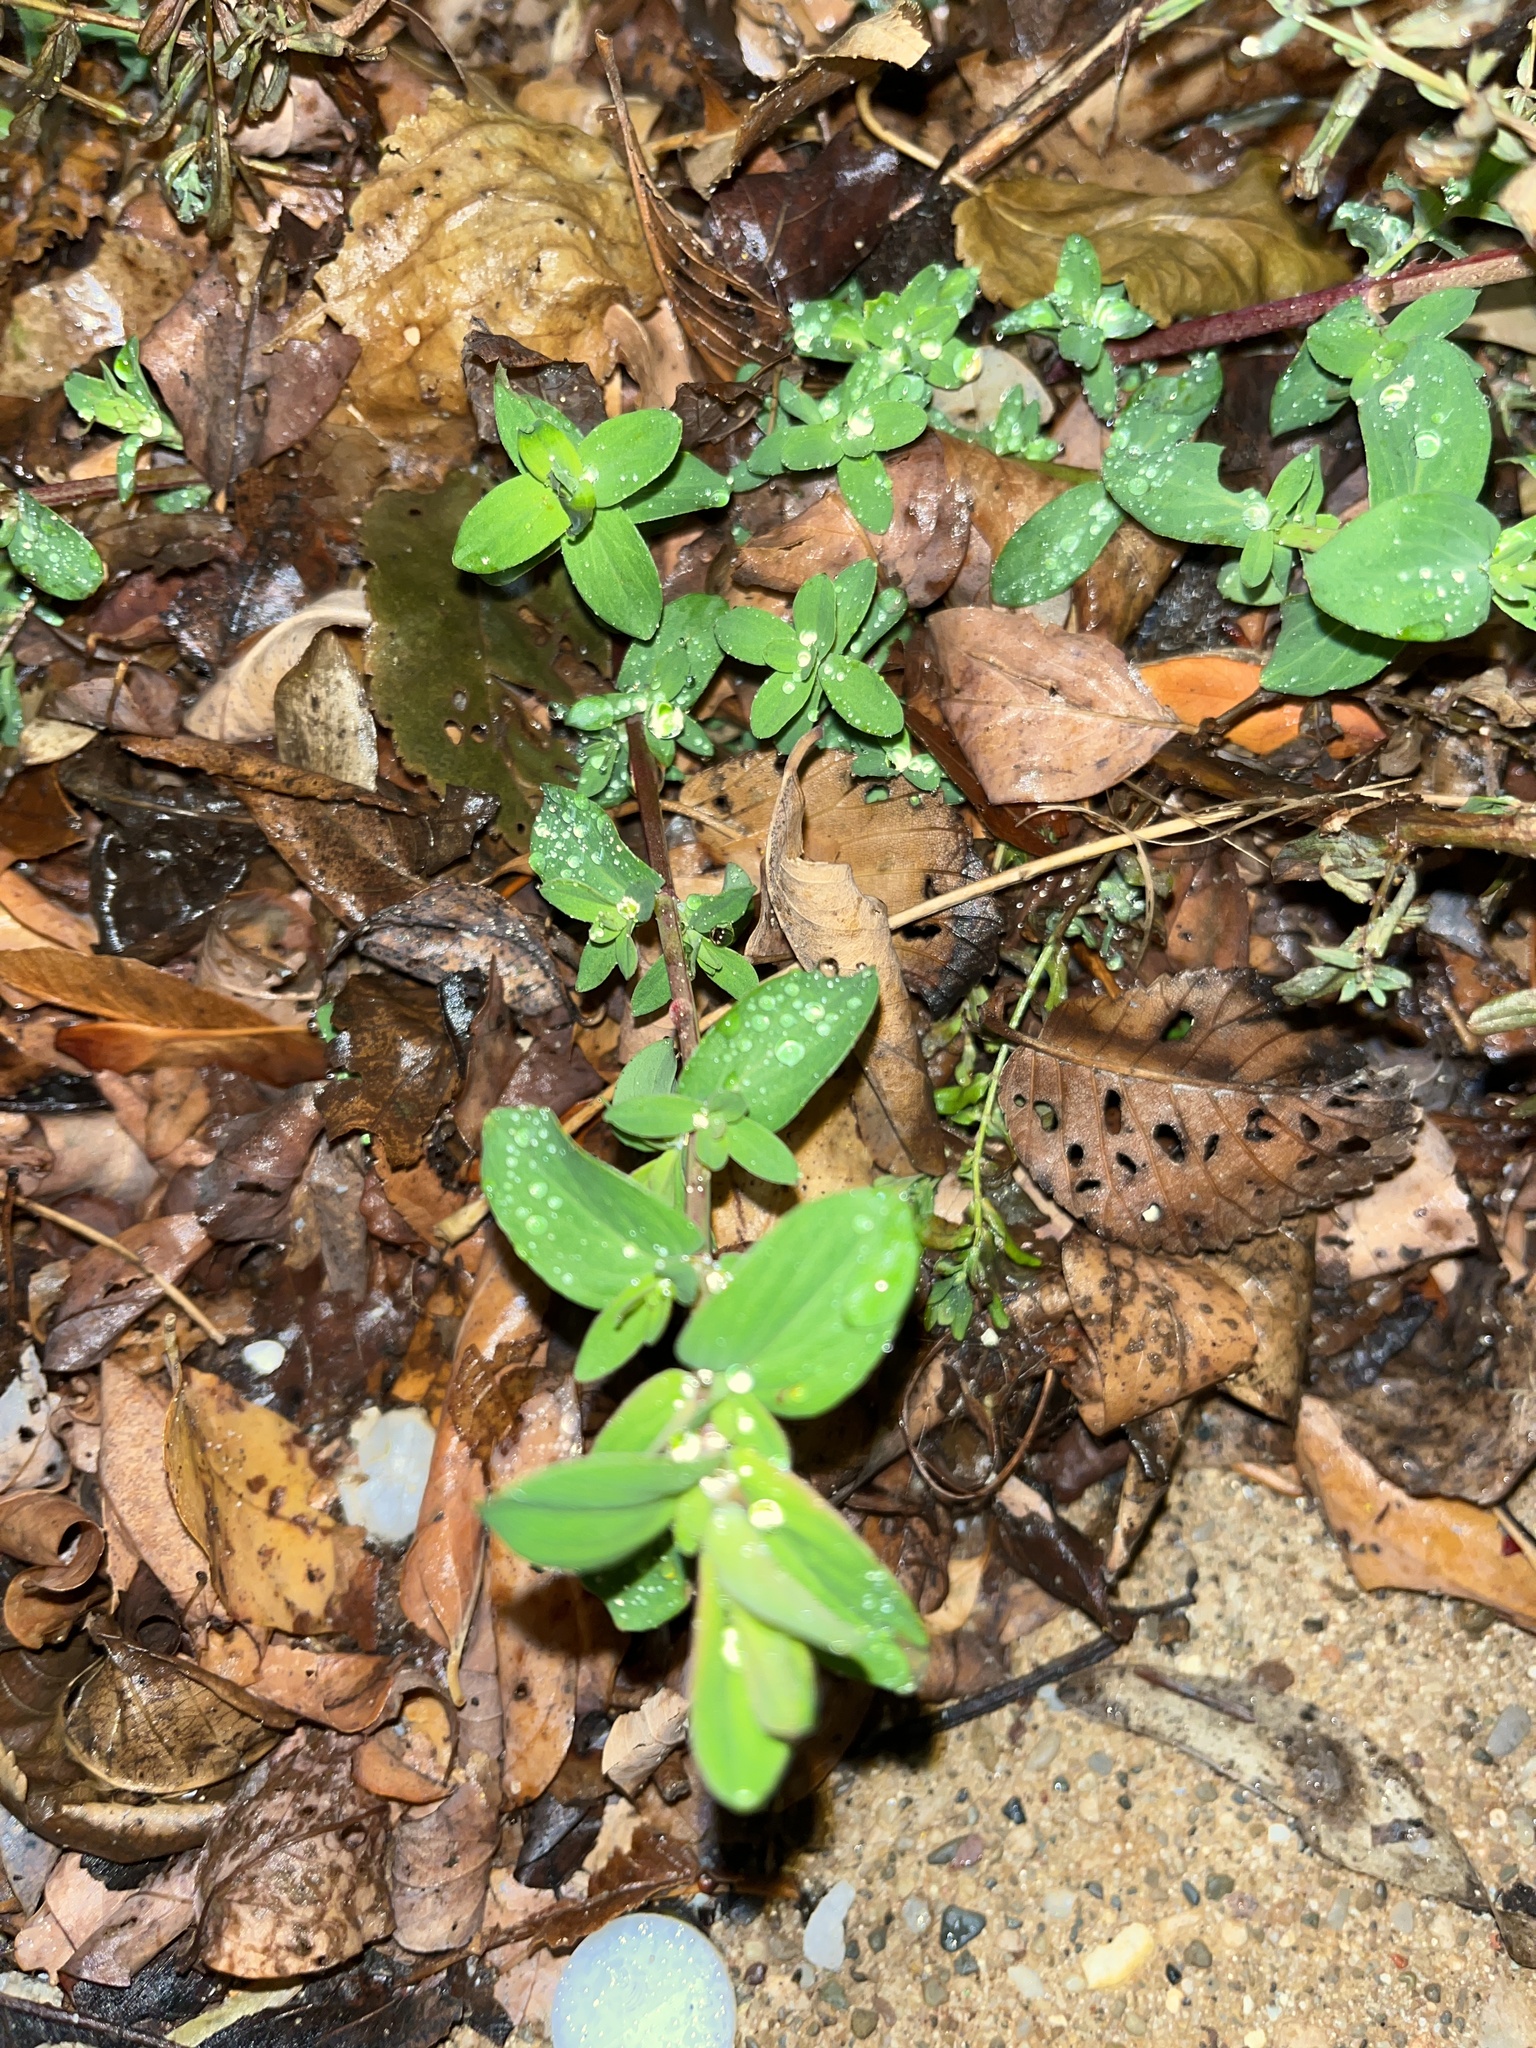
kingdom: Plantae
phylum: Tracheophyta
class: Magnoliopsida
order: Malpighiales
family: Hypericaceae
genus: Hypericum
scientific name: Hypericum perforatum
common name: Common st. johnswort
